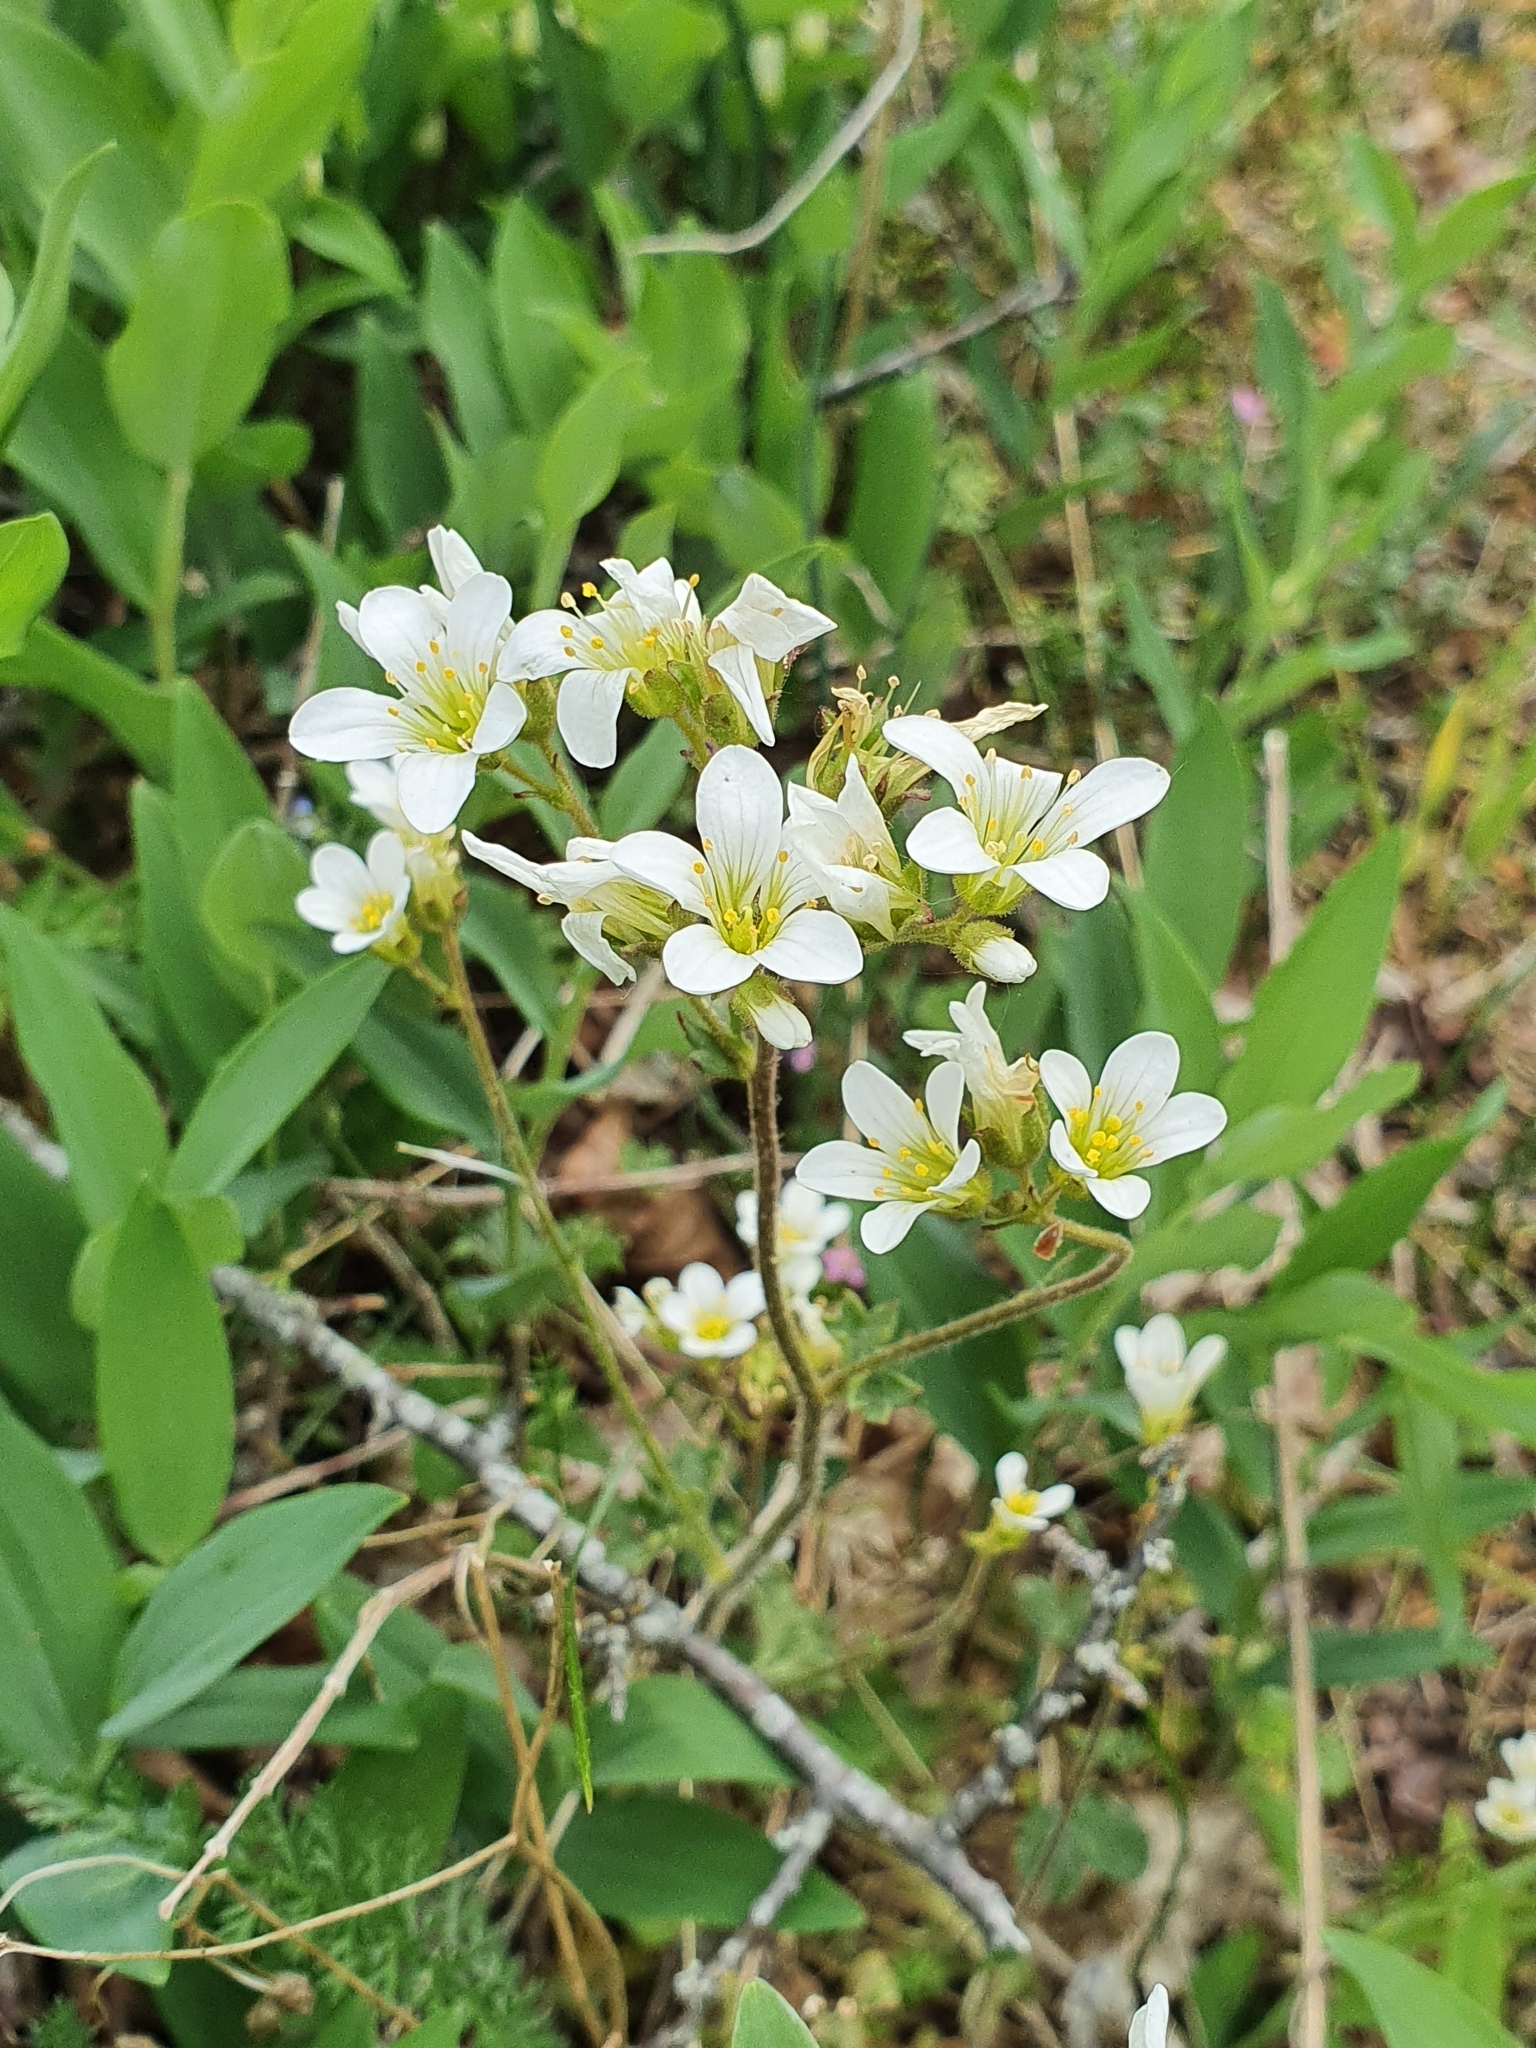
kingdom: Plantae
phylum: Tracheophyta
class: Magnoliopsida
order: Saxifragales
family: Saxifragaceae
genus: Saxifraga
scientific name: Saxifraga granulata
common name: Meadow saxifrage
